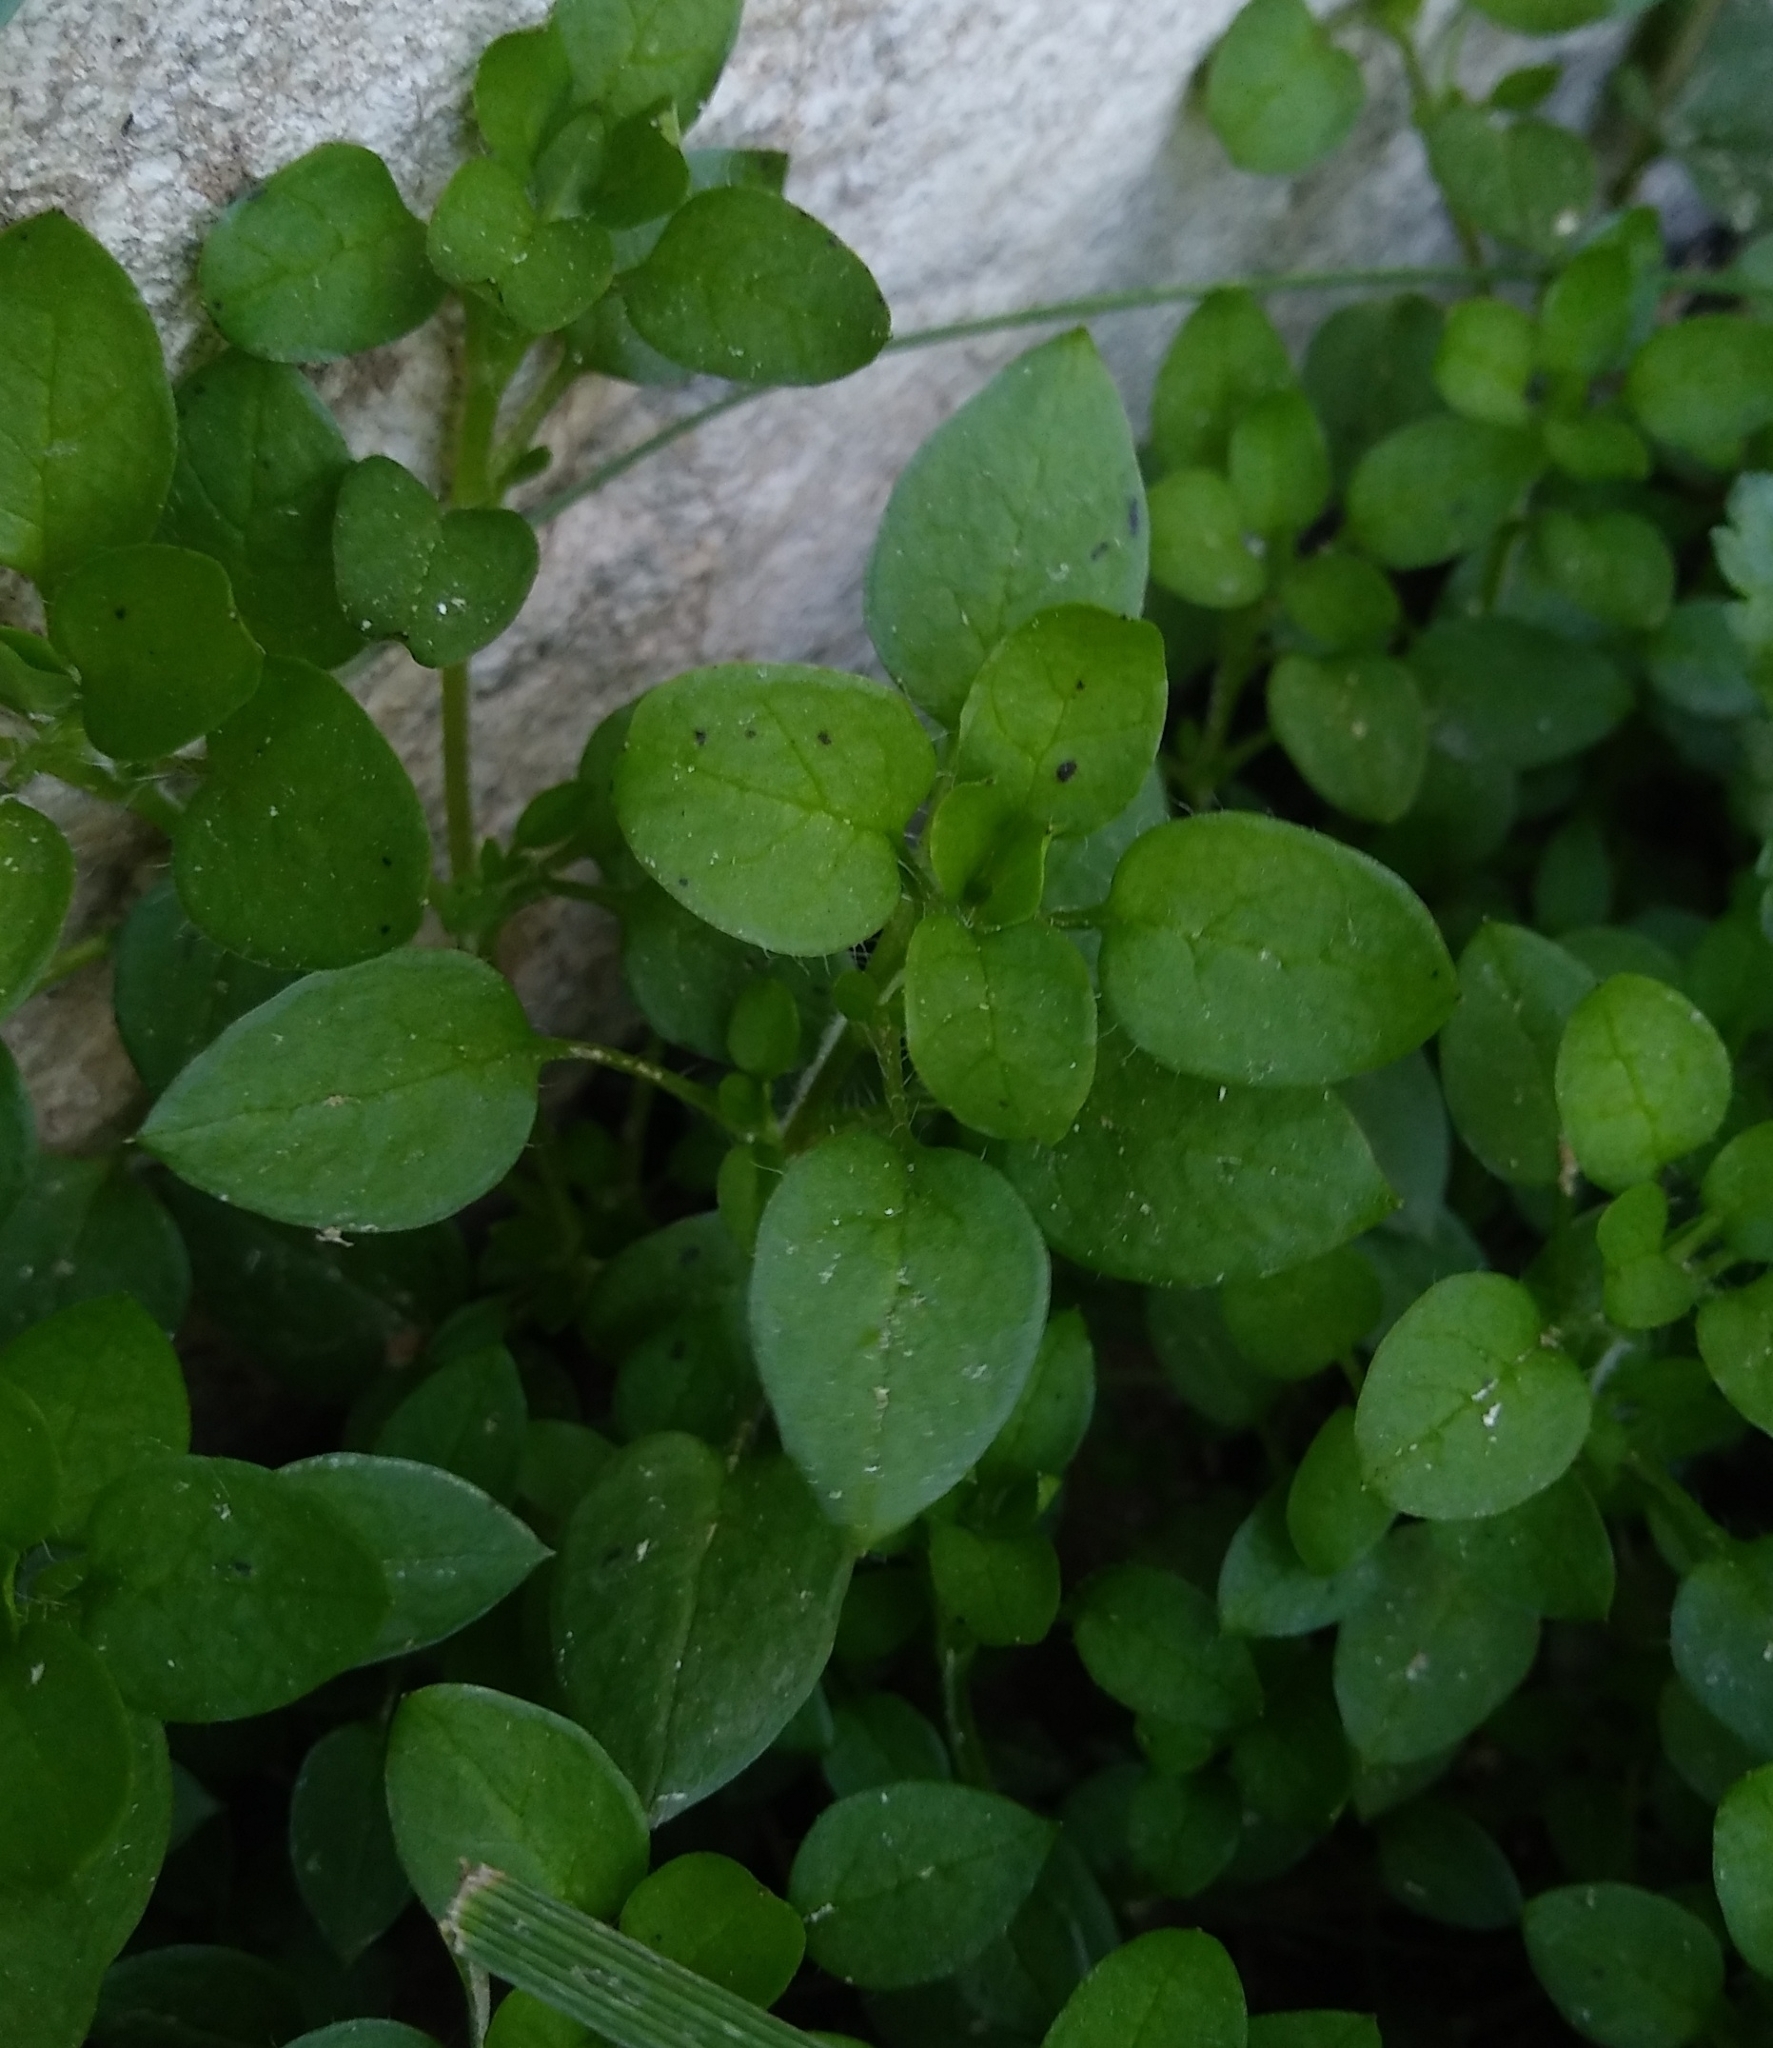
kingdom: Plantae
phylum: Tracheophyta
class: Magnoliopsida
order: Caryophyllales
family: Caryophyllaceae
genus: Stellaria
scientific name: Stellaria media
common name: Common chickweed
